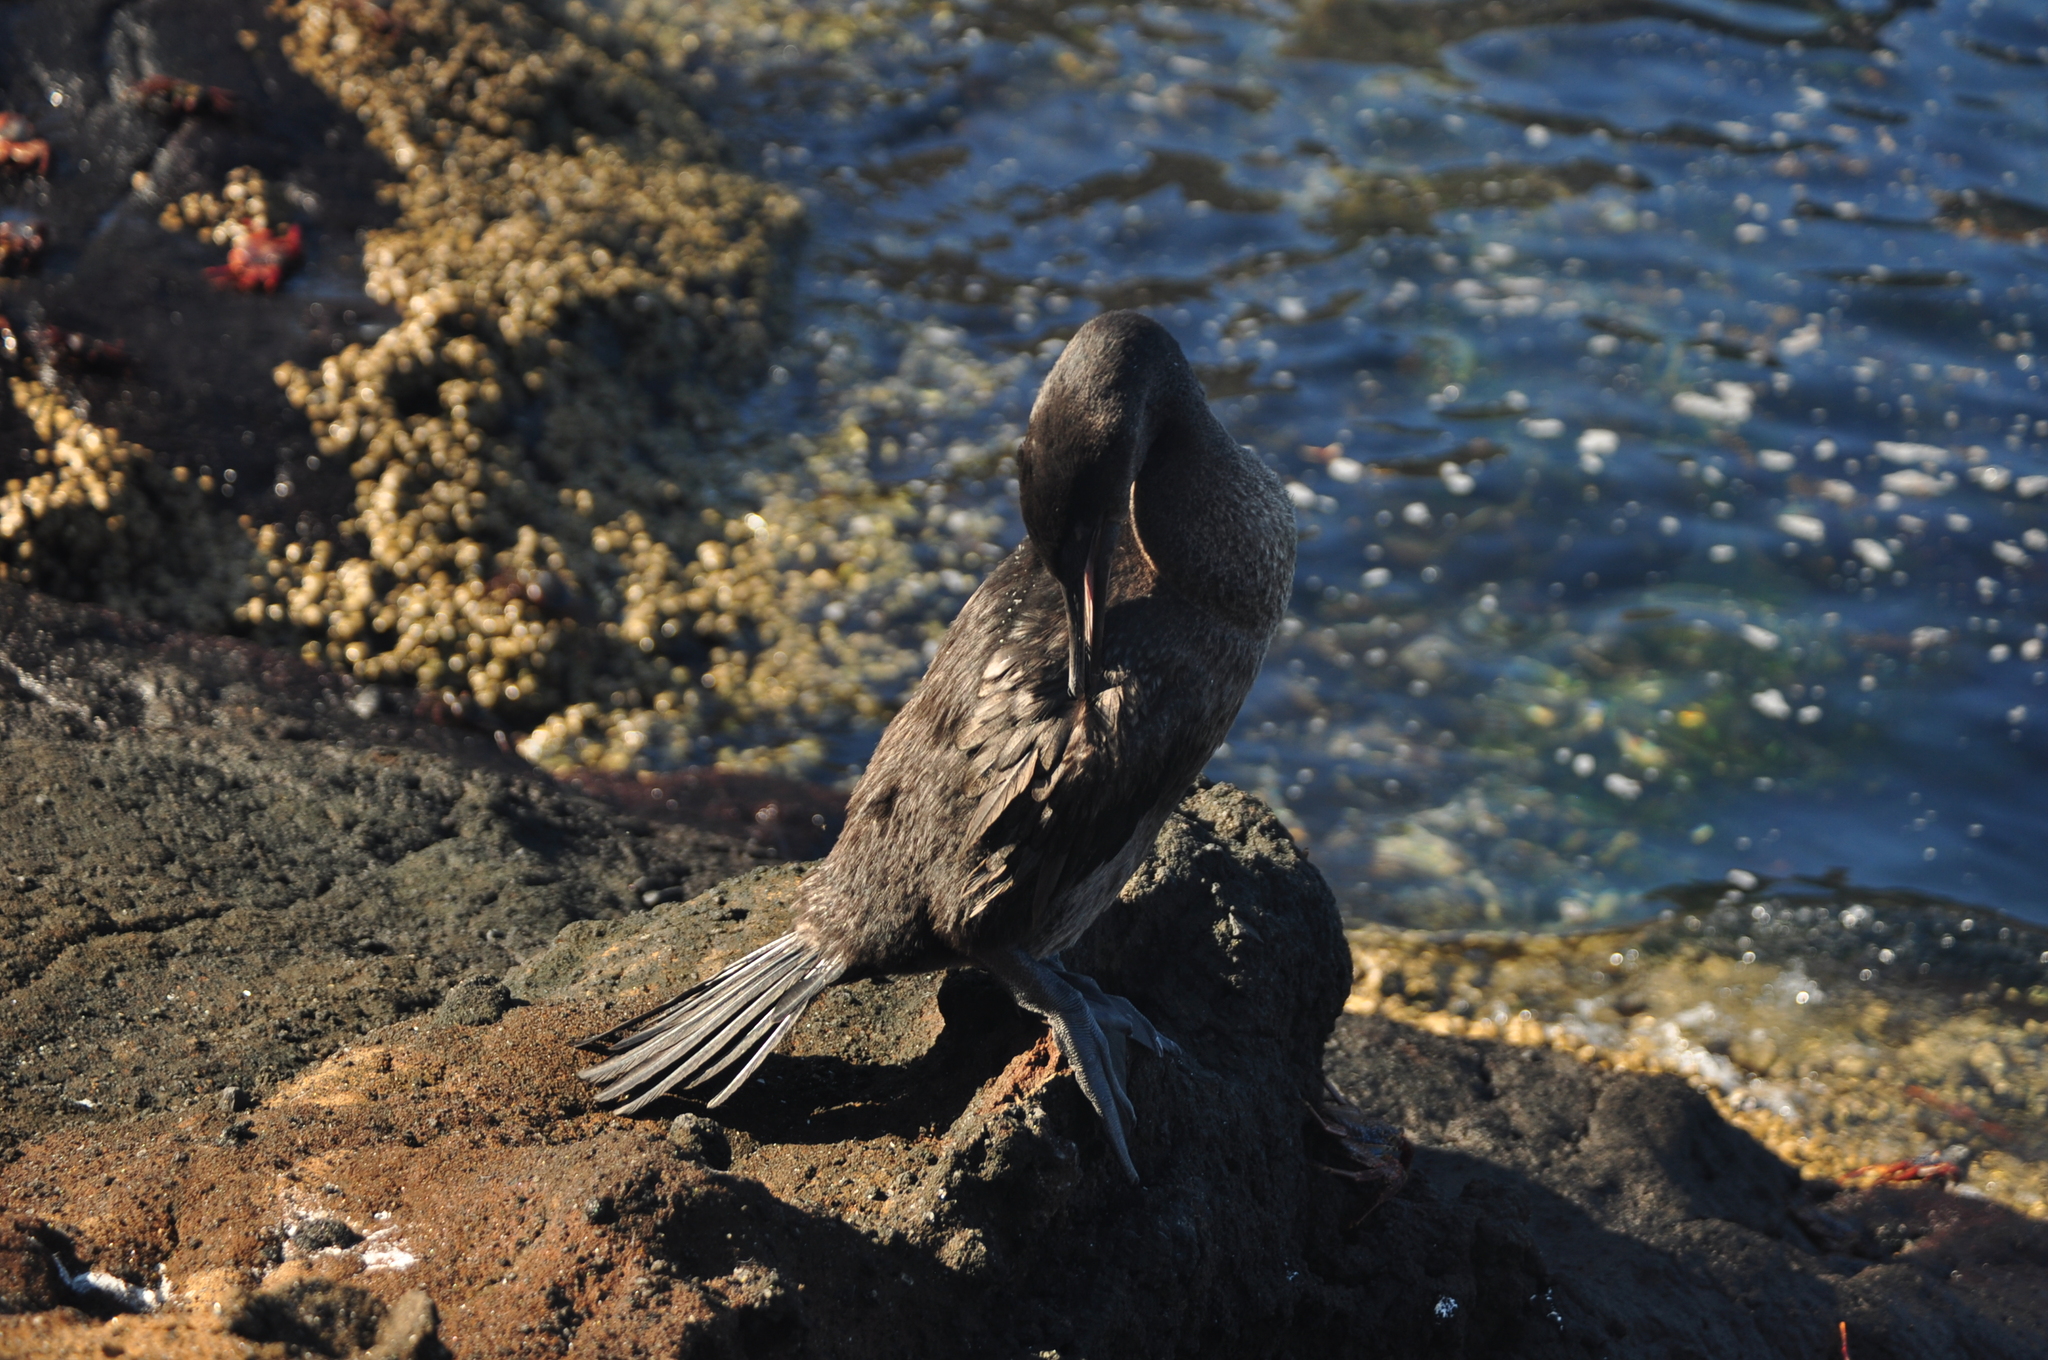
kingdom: Animalia
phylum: Chordata
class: Aves
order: Suliformes
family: Phalacrocoracidae
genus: Phalacrocorax
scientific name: Phalacrocorax harrisi
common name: Flightless cormorant
